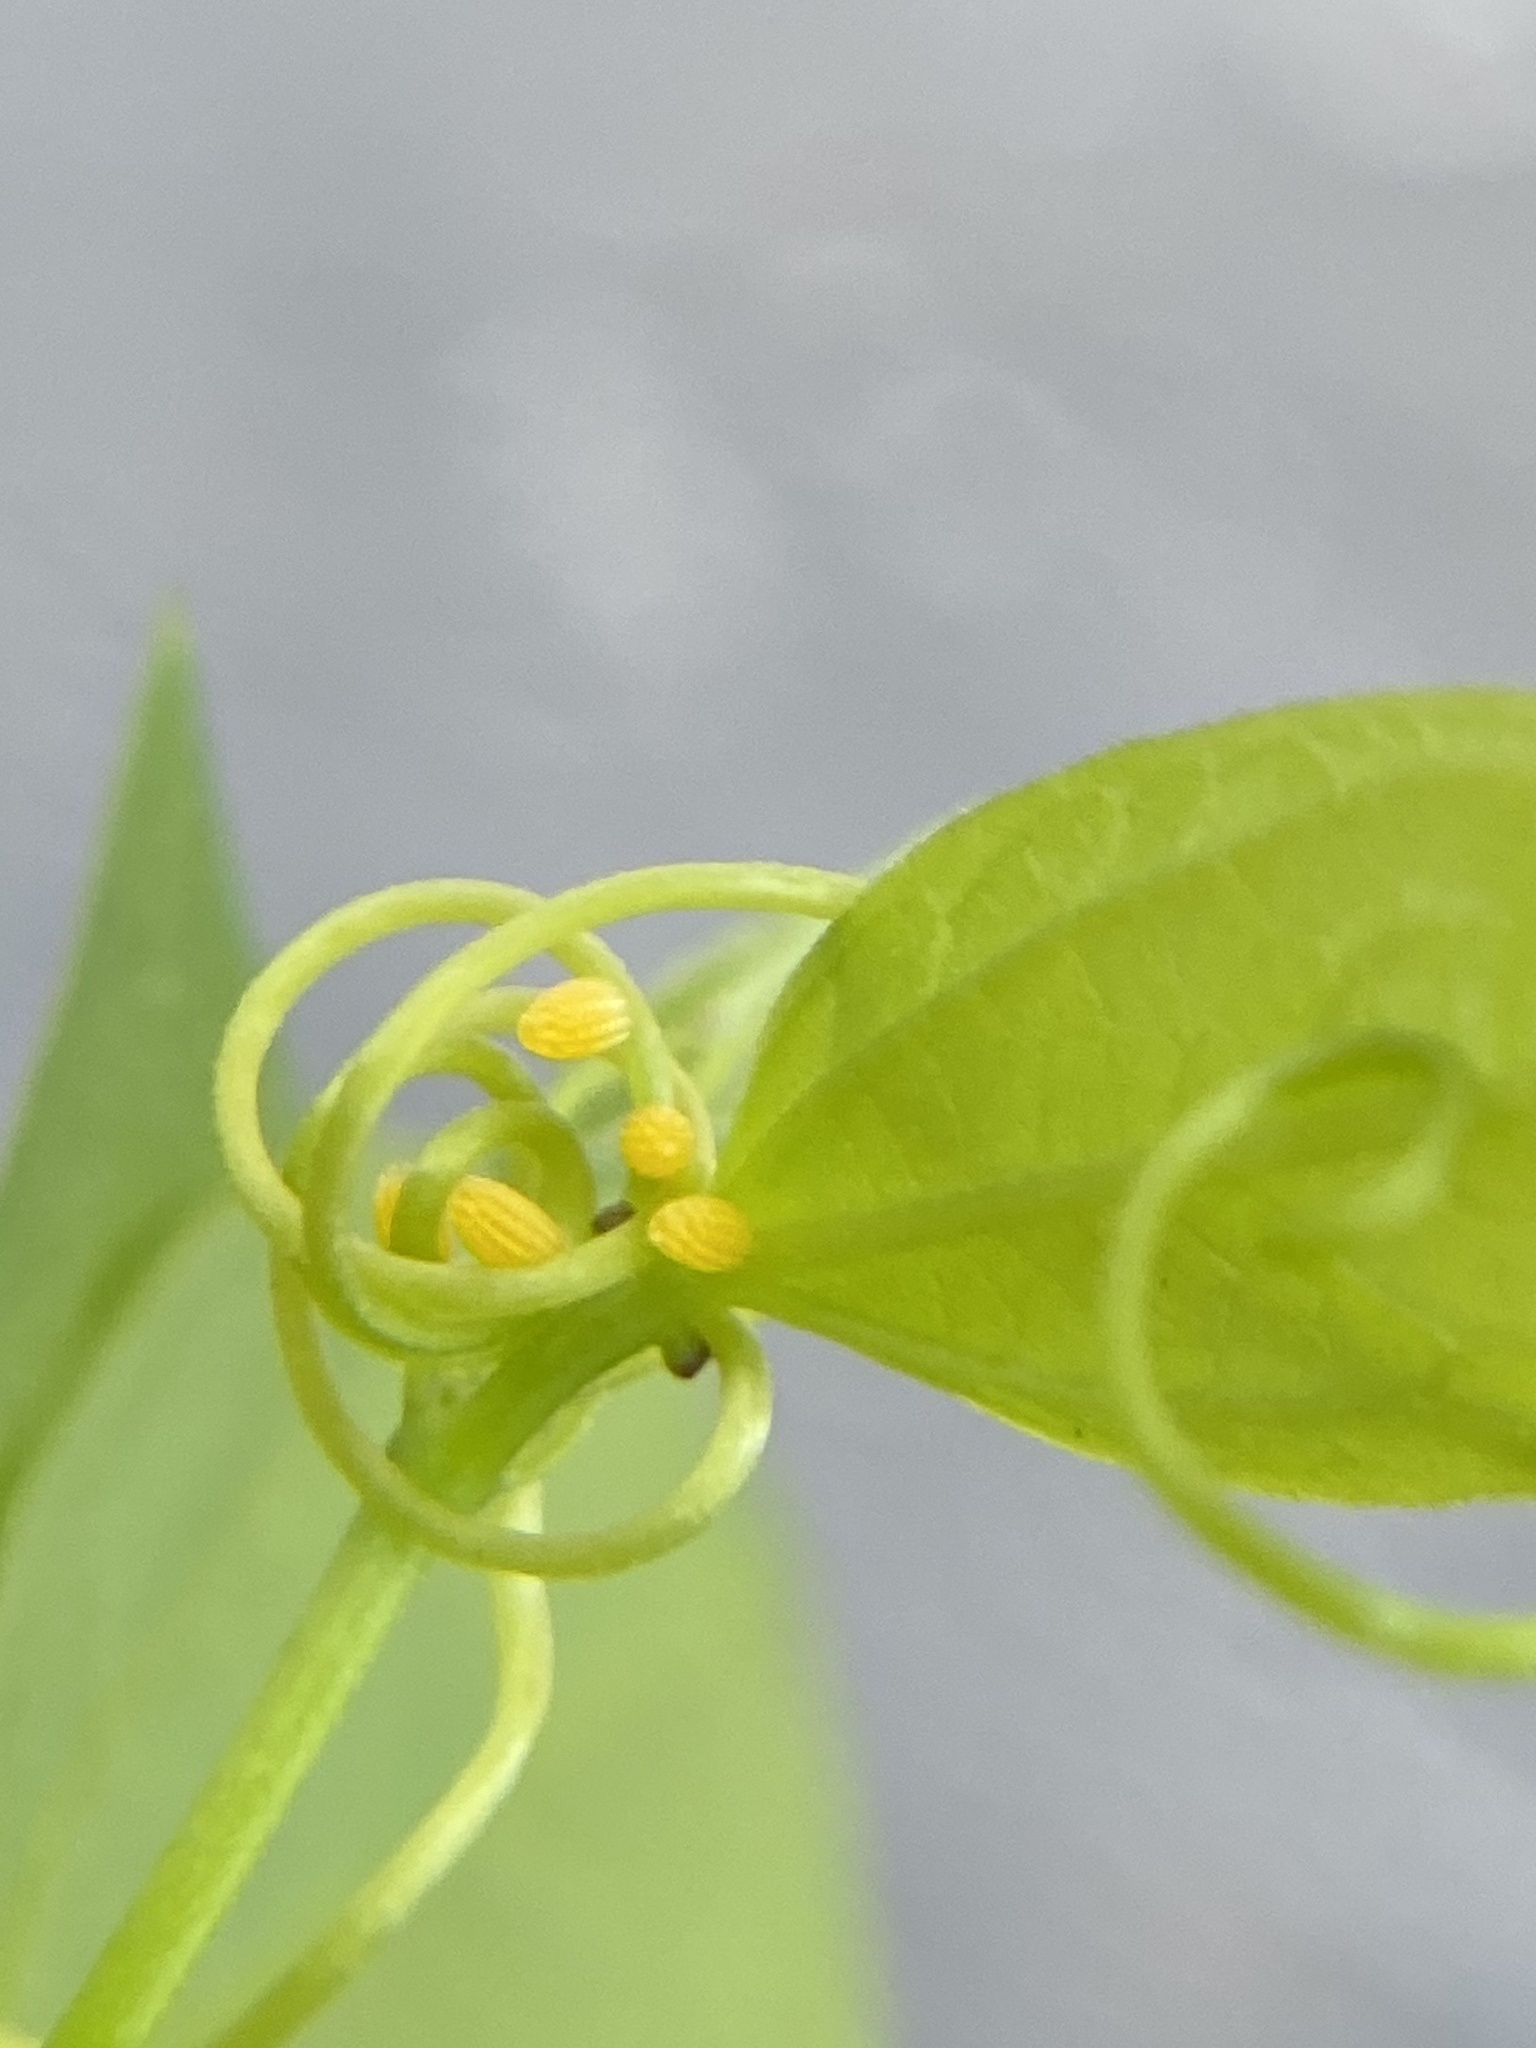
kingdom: Animalia
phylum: Arthropoda
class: Insecta
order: Lepidoptera
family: Nymphalidae
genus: Heliconius
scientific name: Heliconius charithonia
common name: Zebra long wing
